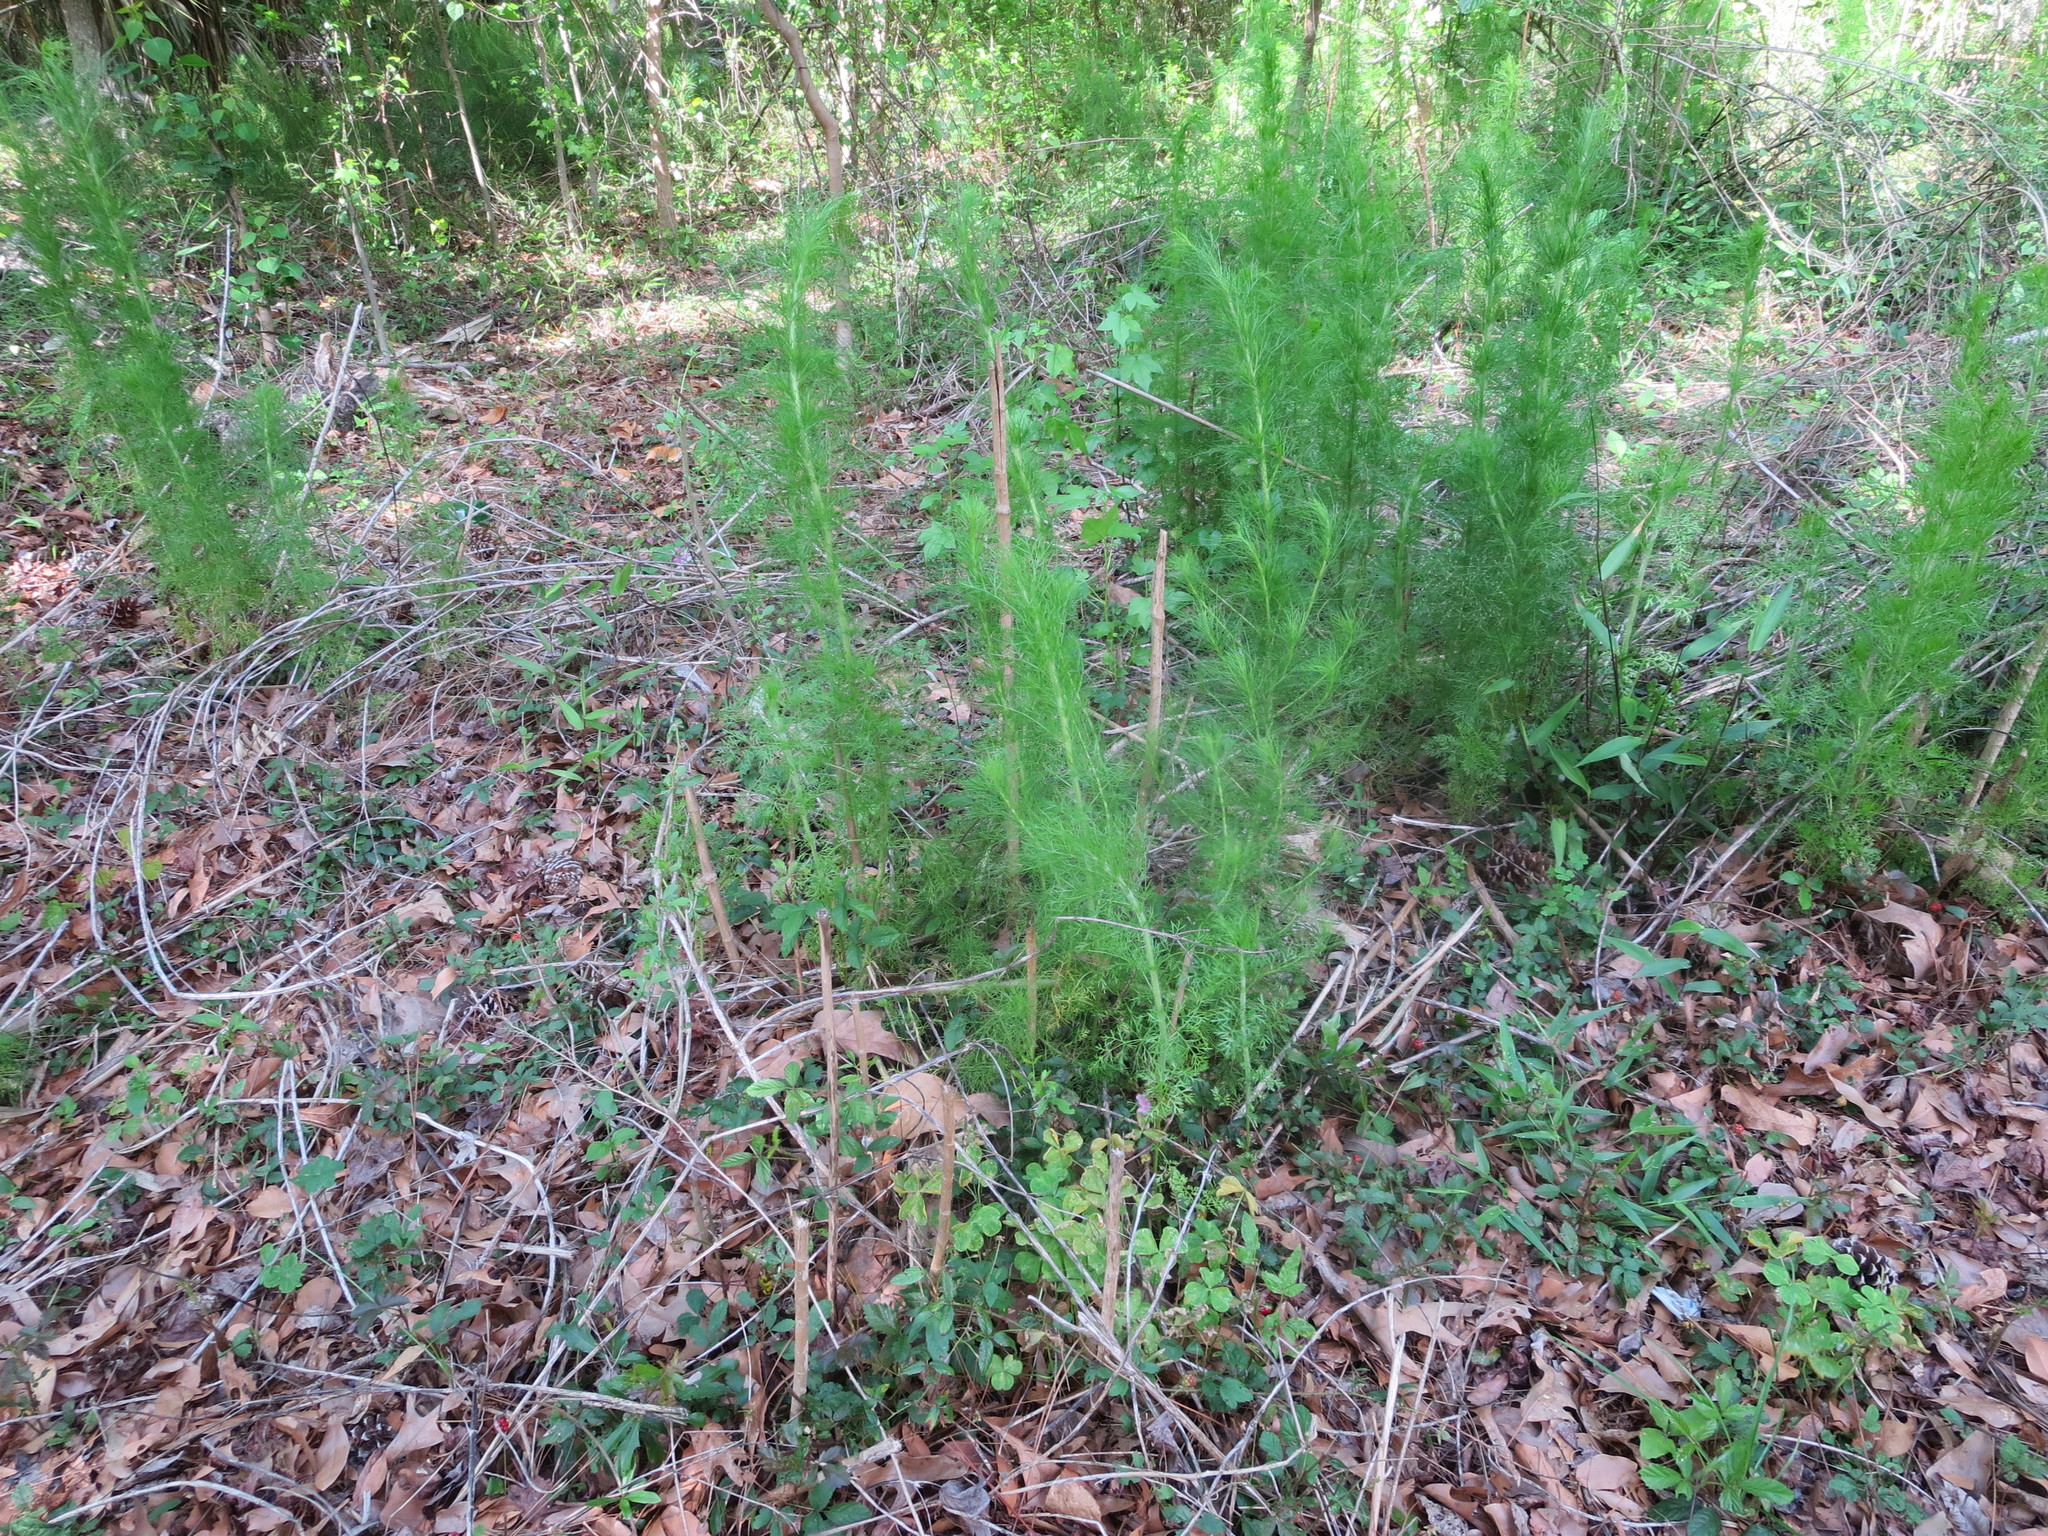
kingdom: Plantae
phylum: Tracheophyta
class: Magnoliopsida
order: Asterales
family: Asteraceae
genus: Eupatorium
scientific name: Eupatorium capillifolium
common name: Dog-fennel
